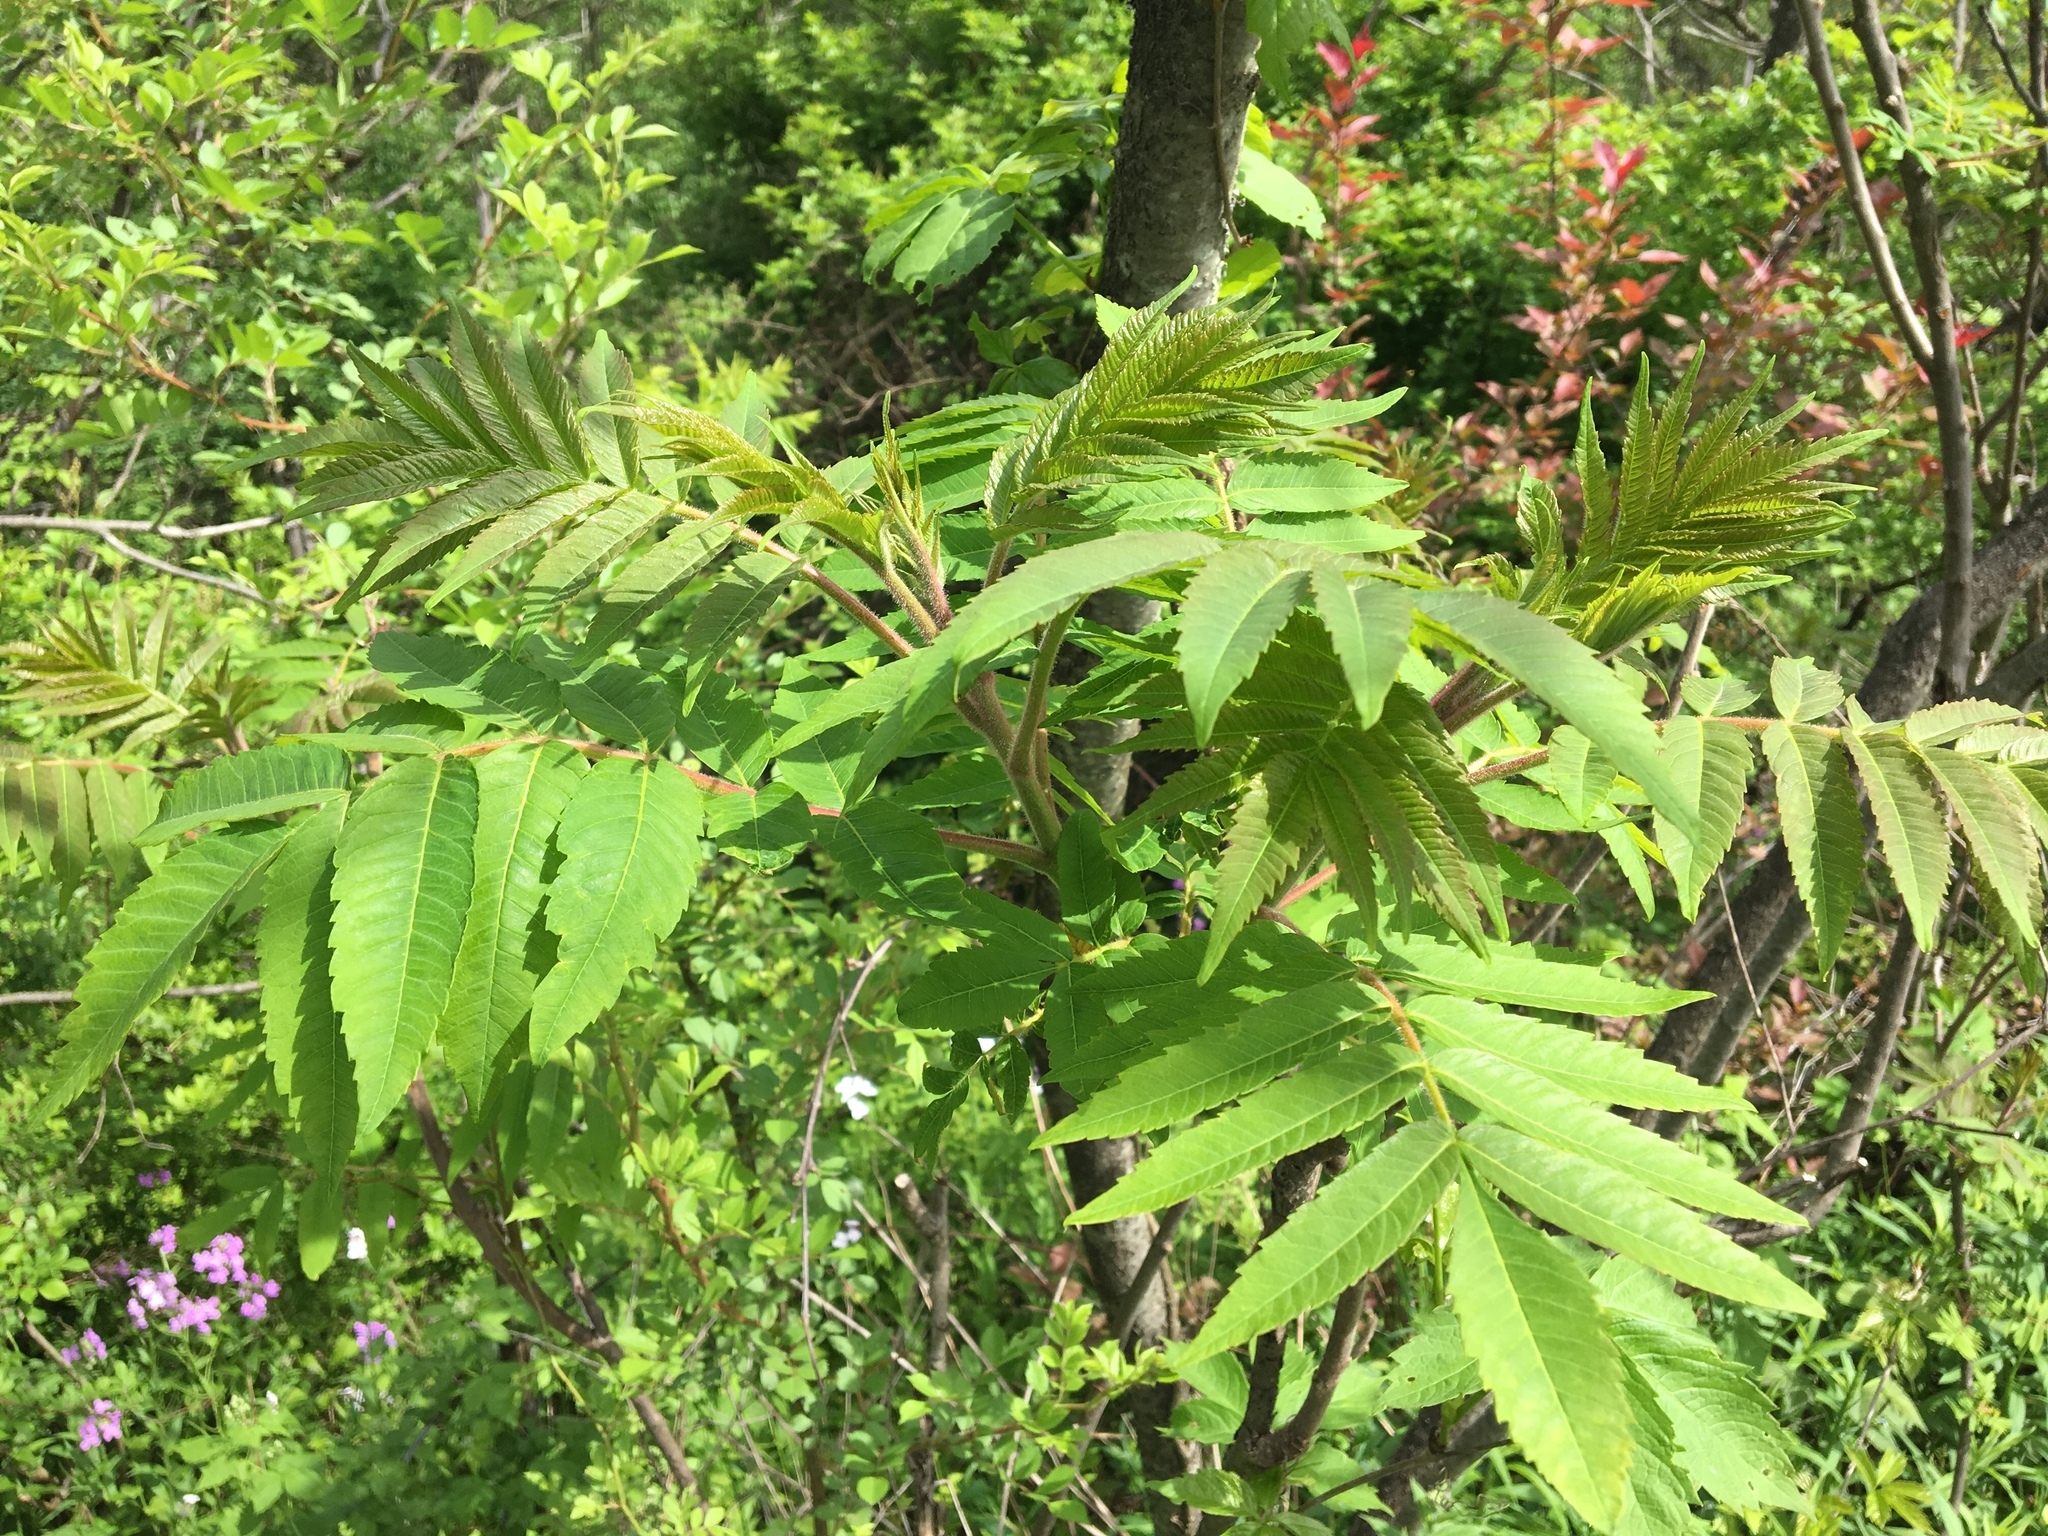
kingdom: Plantae
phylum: Tracheophyta
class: Magnoliopsida
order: Sapindales
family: Anacardiaceae
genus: Rhus
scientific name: Rhus typhina
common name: Staghorn sumac
